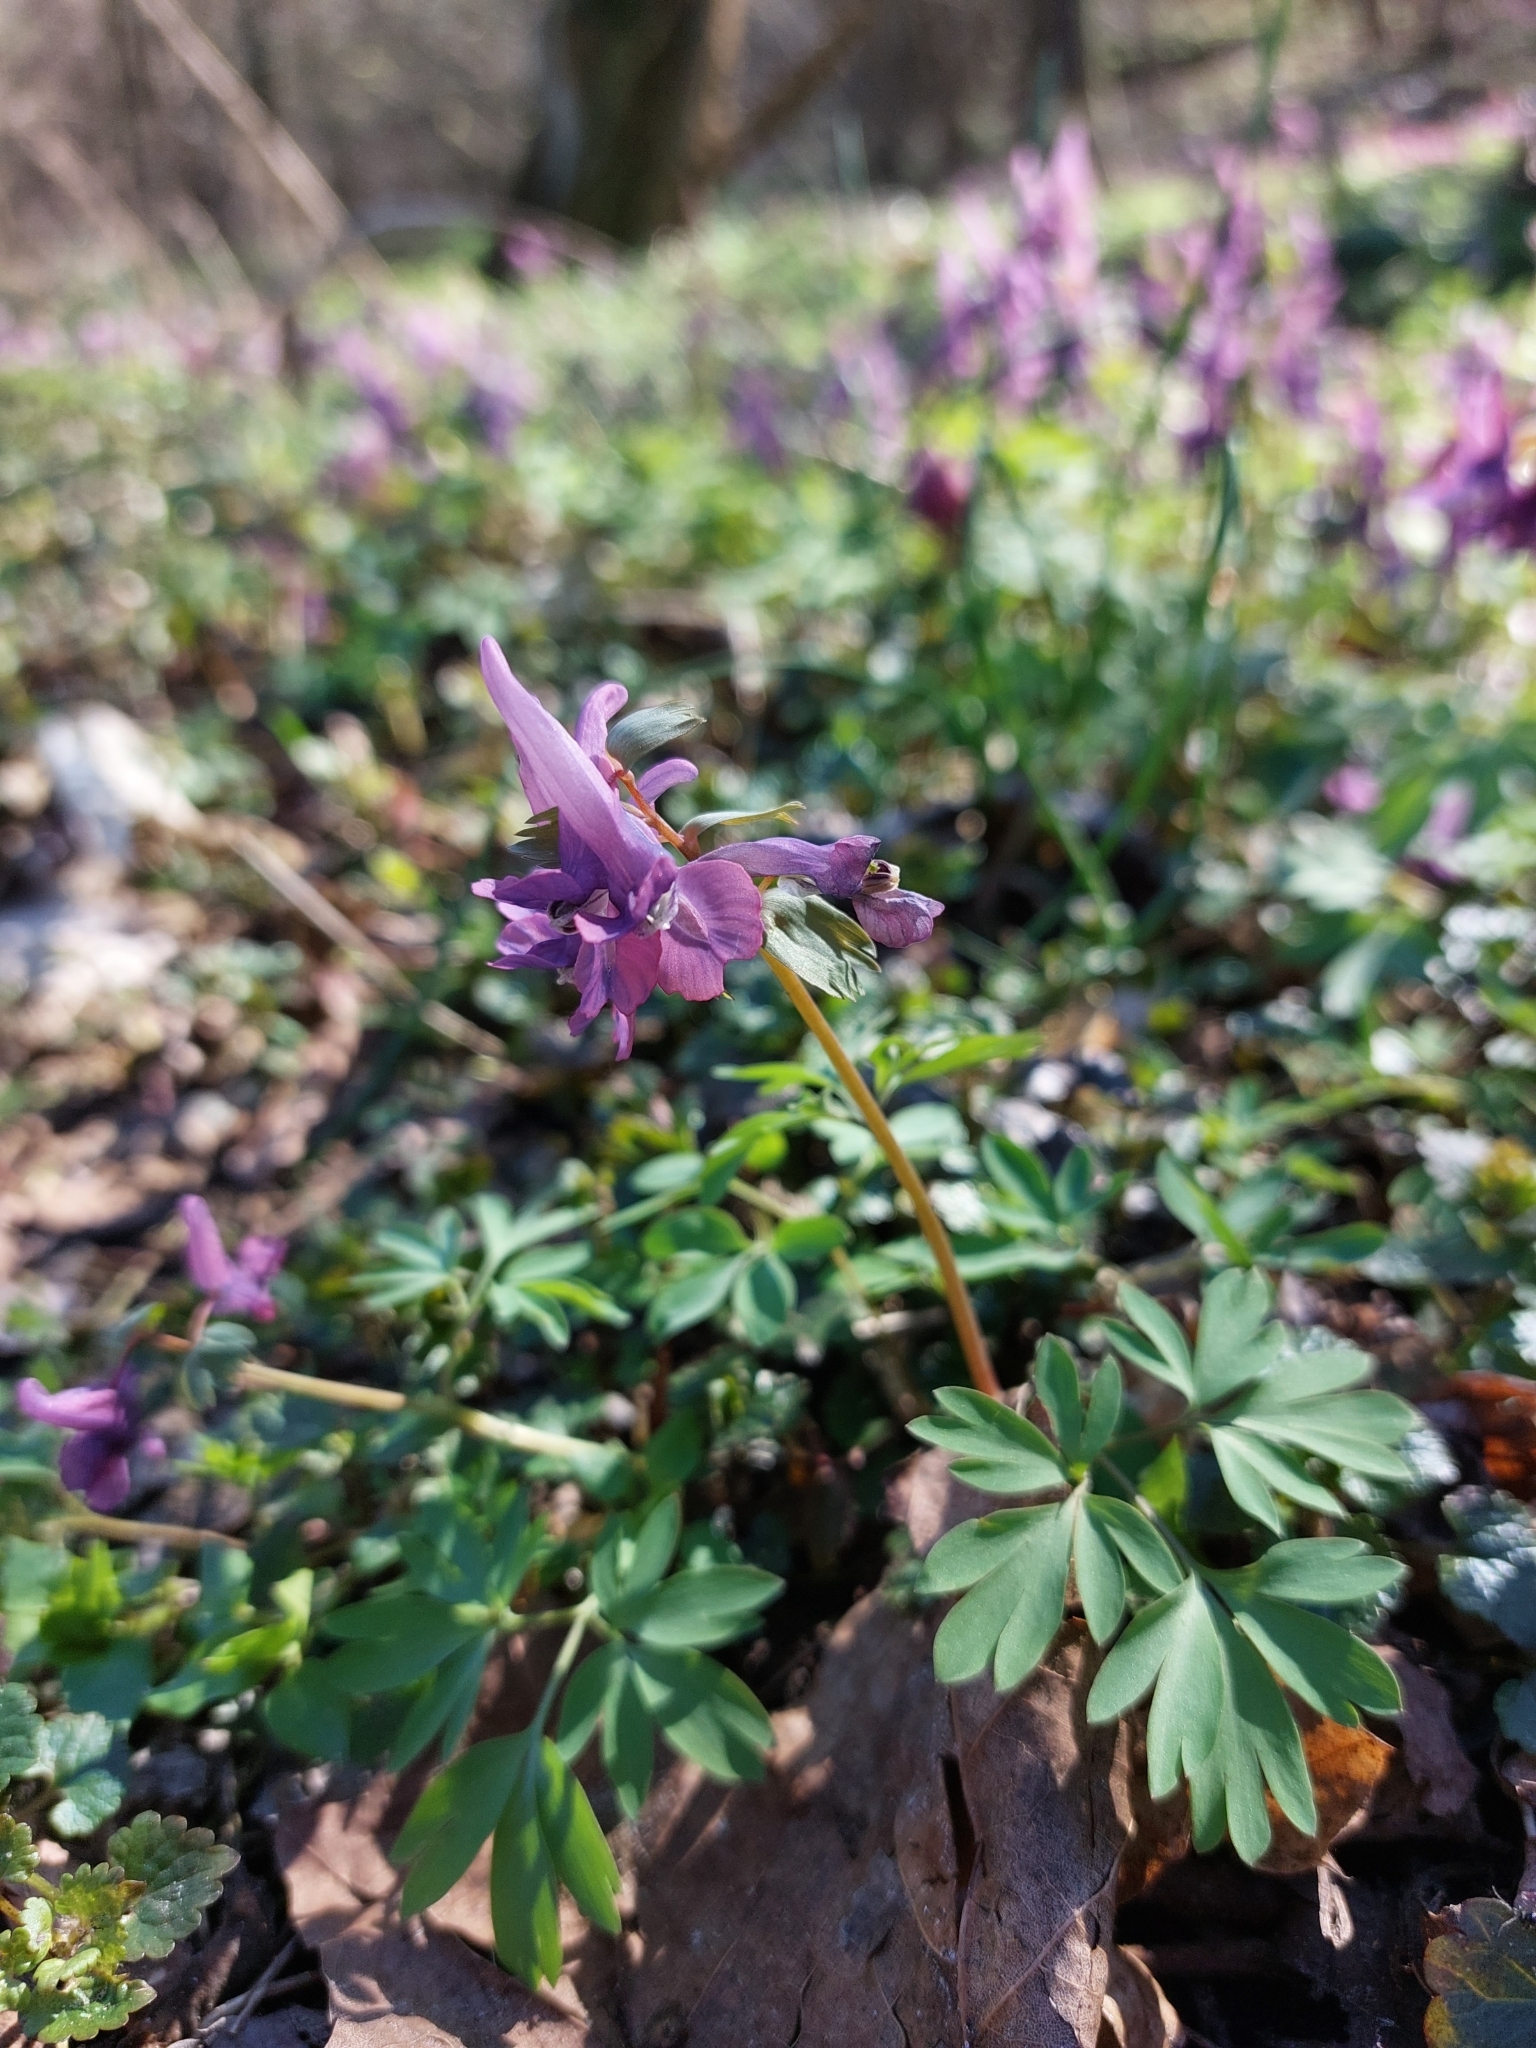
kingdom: Plantae
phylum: Tracheophyta
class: Magnoliopsida
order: Ranunculales
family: Papaveraceae
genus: Corydalis
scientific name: Corydalis solida
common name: Bird-in-a-bush
